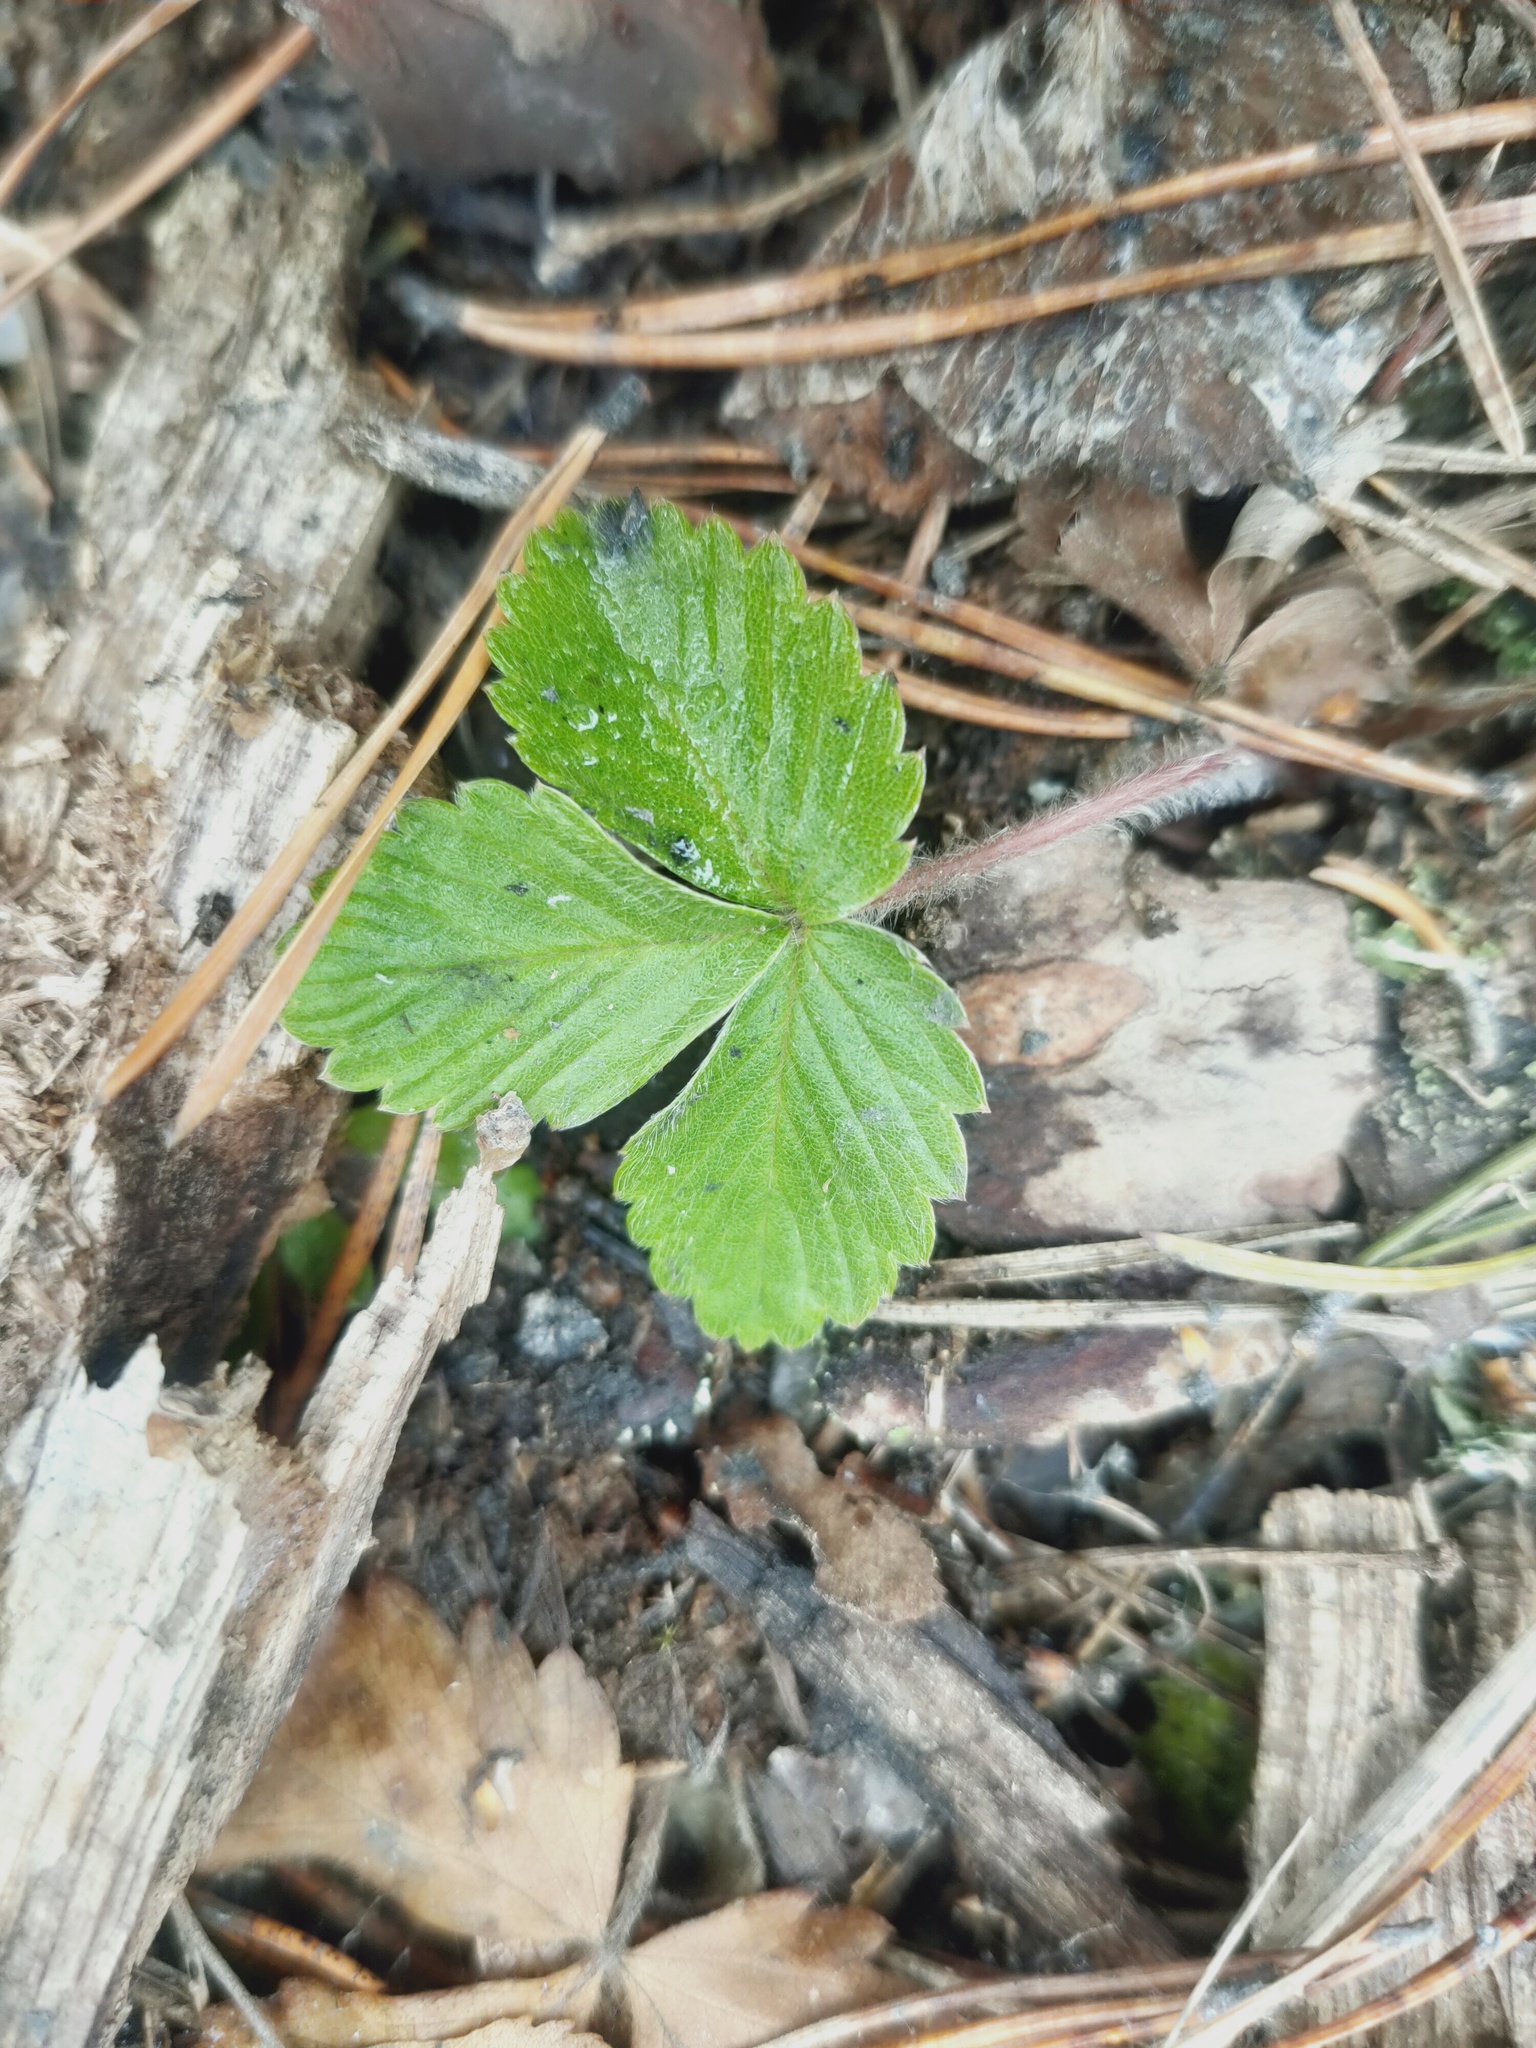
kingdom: Plantae
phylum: Tracheophyta
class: Magnoliopsida
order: Rosales
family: Rosaceae
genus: Fragaria
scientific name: Fragaria vesca
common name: Wild strawberry
